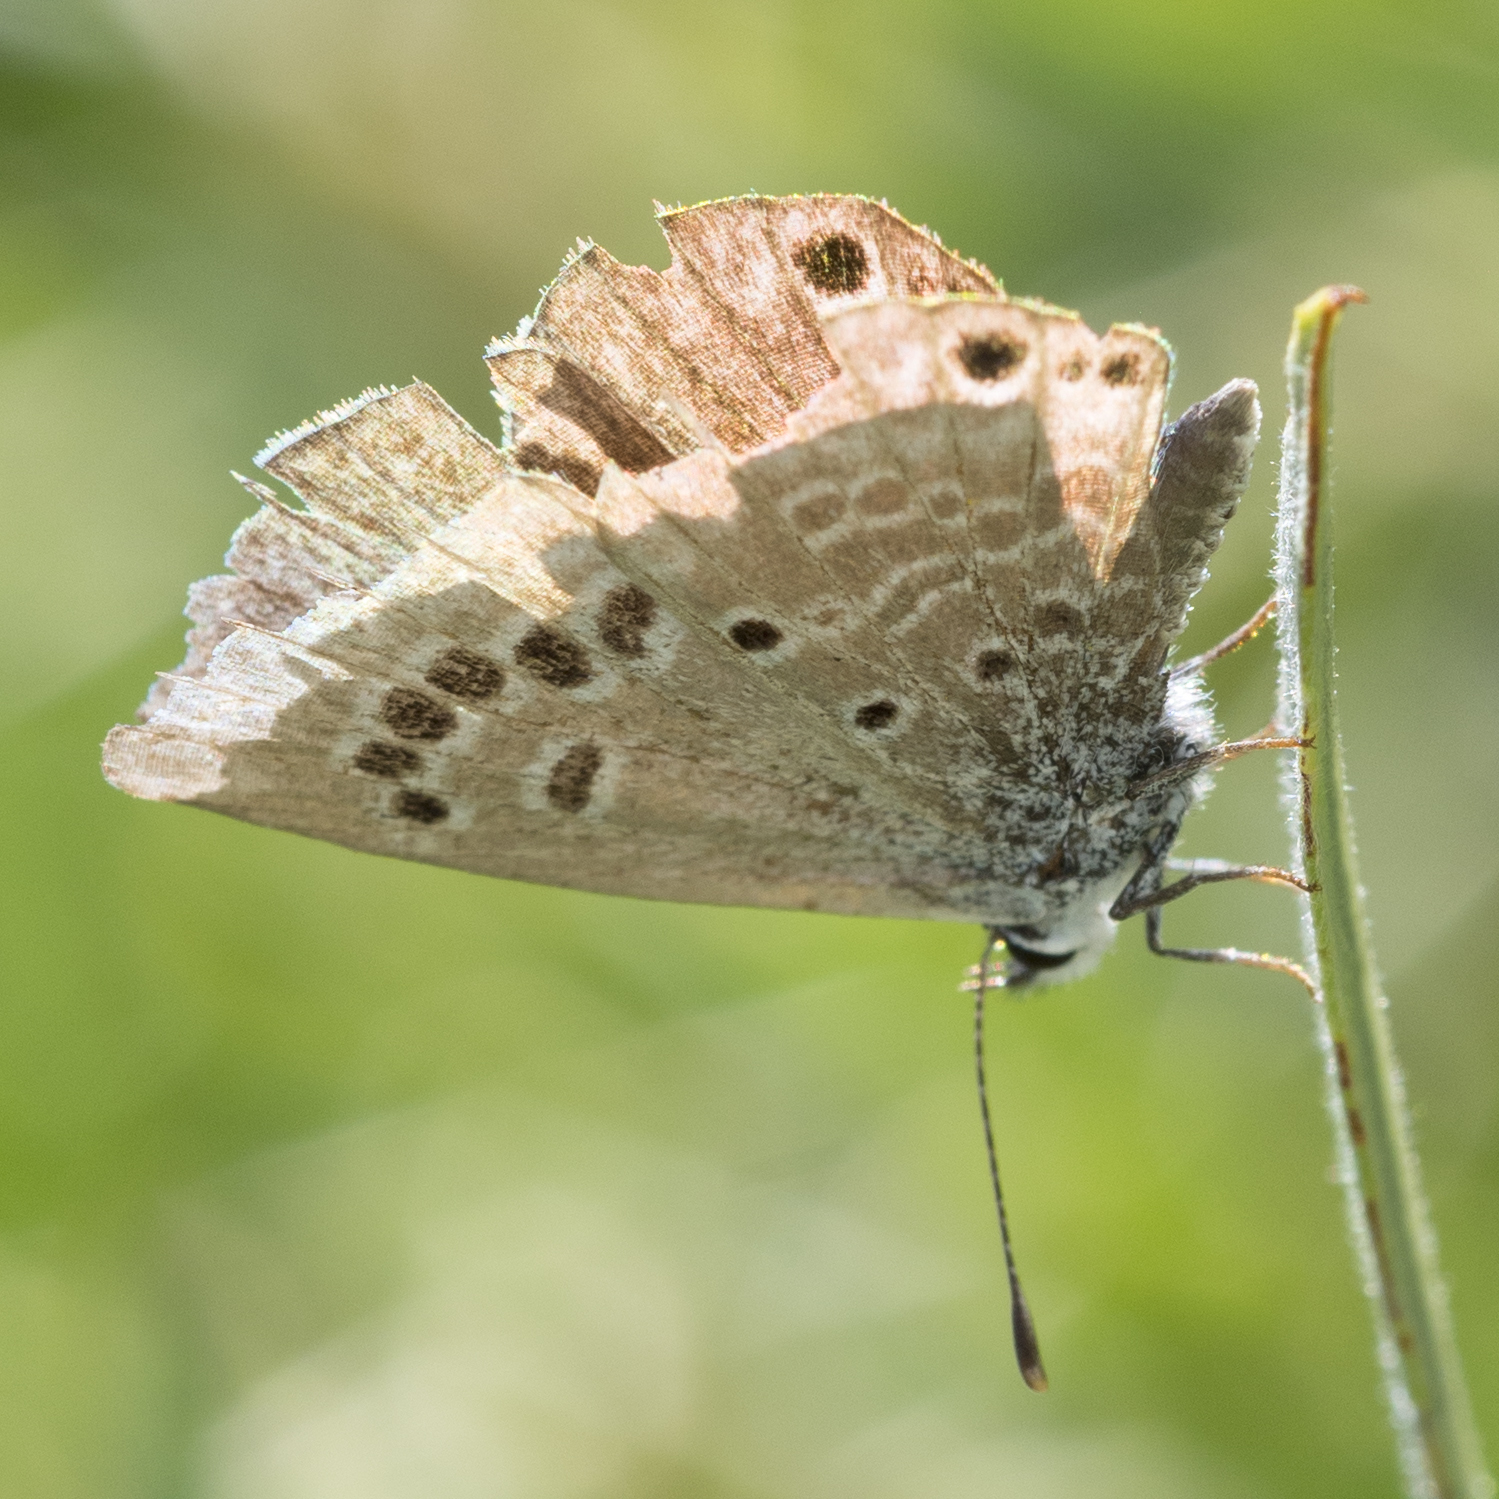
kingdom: Animalia
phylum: Arthropoda
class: Insecta
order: Lepidoptera
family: Lycaenidae
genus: Echinargus
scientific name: Echinargus isola
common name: Reakirt's blue
